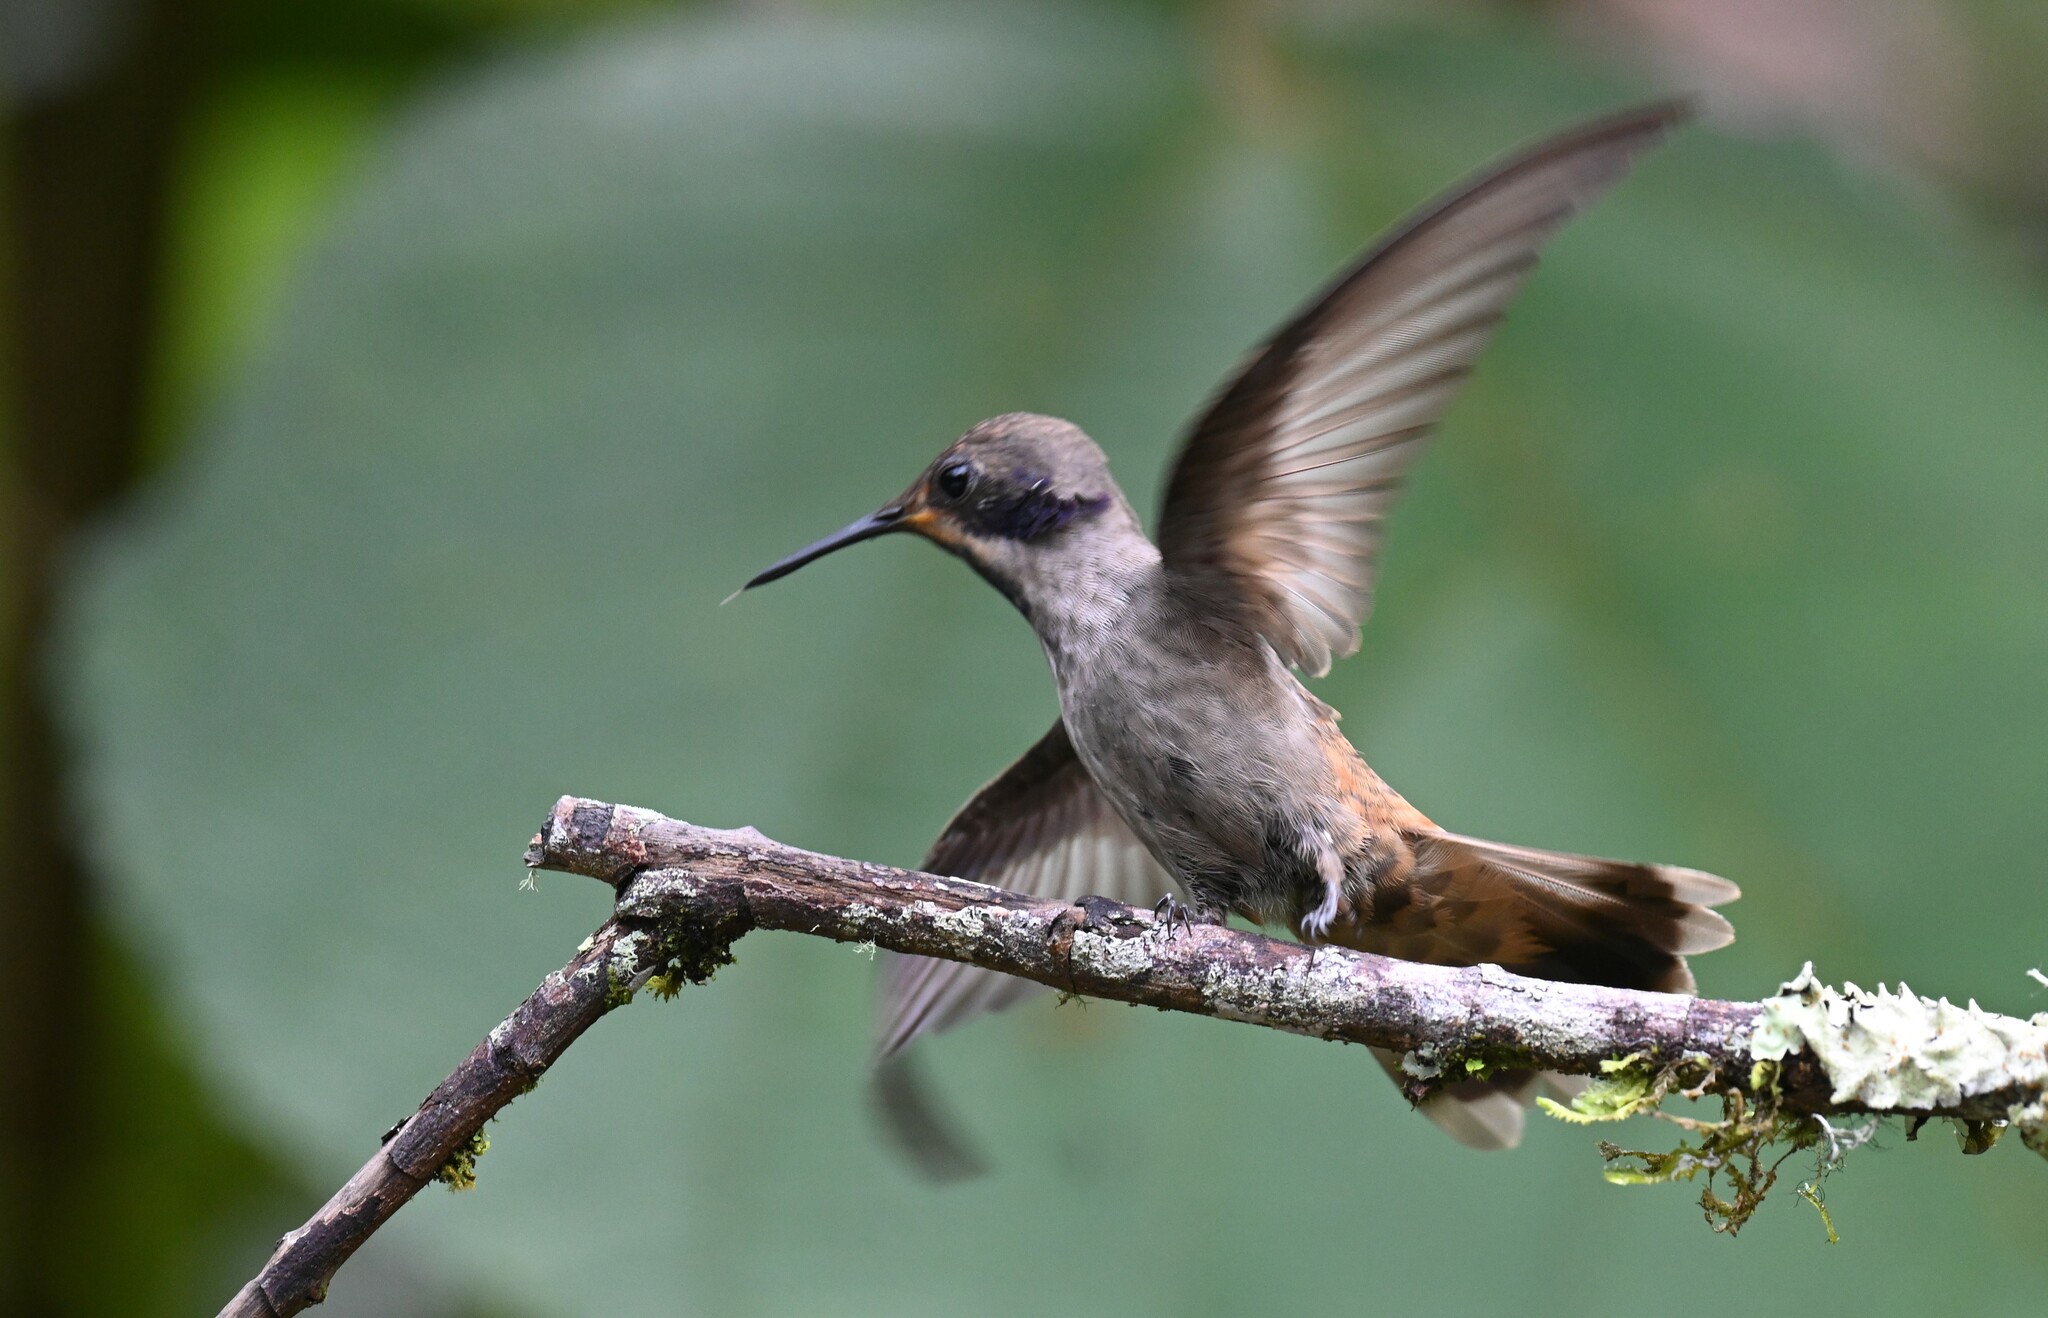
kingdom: Animalia
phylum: Chordata
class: Aves
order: Apodiformes
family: Trochilidae
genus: Colibri
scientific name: Colibri delphinae
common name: Brown violetear
